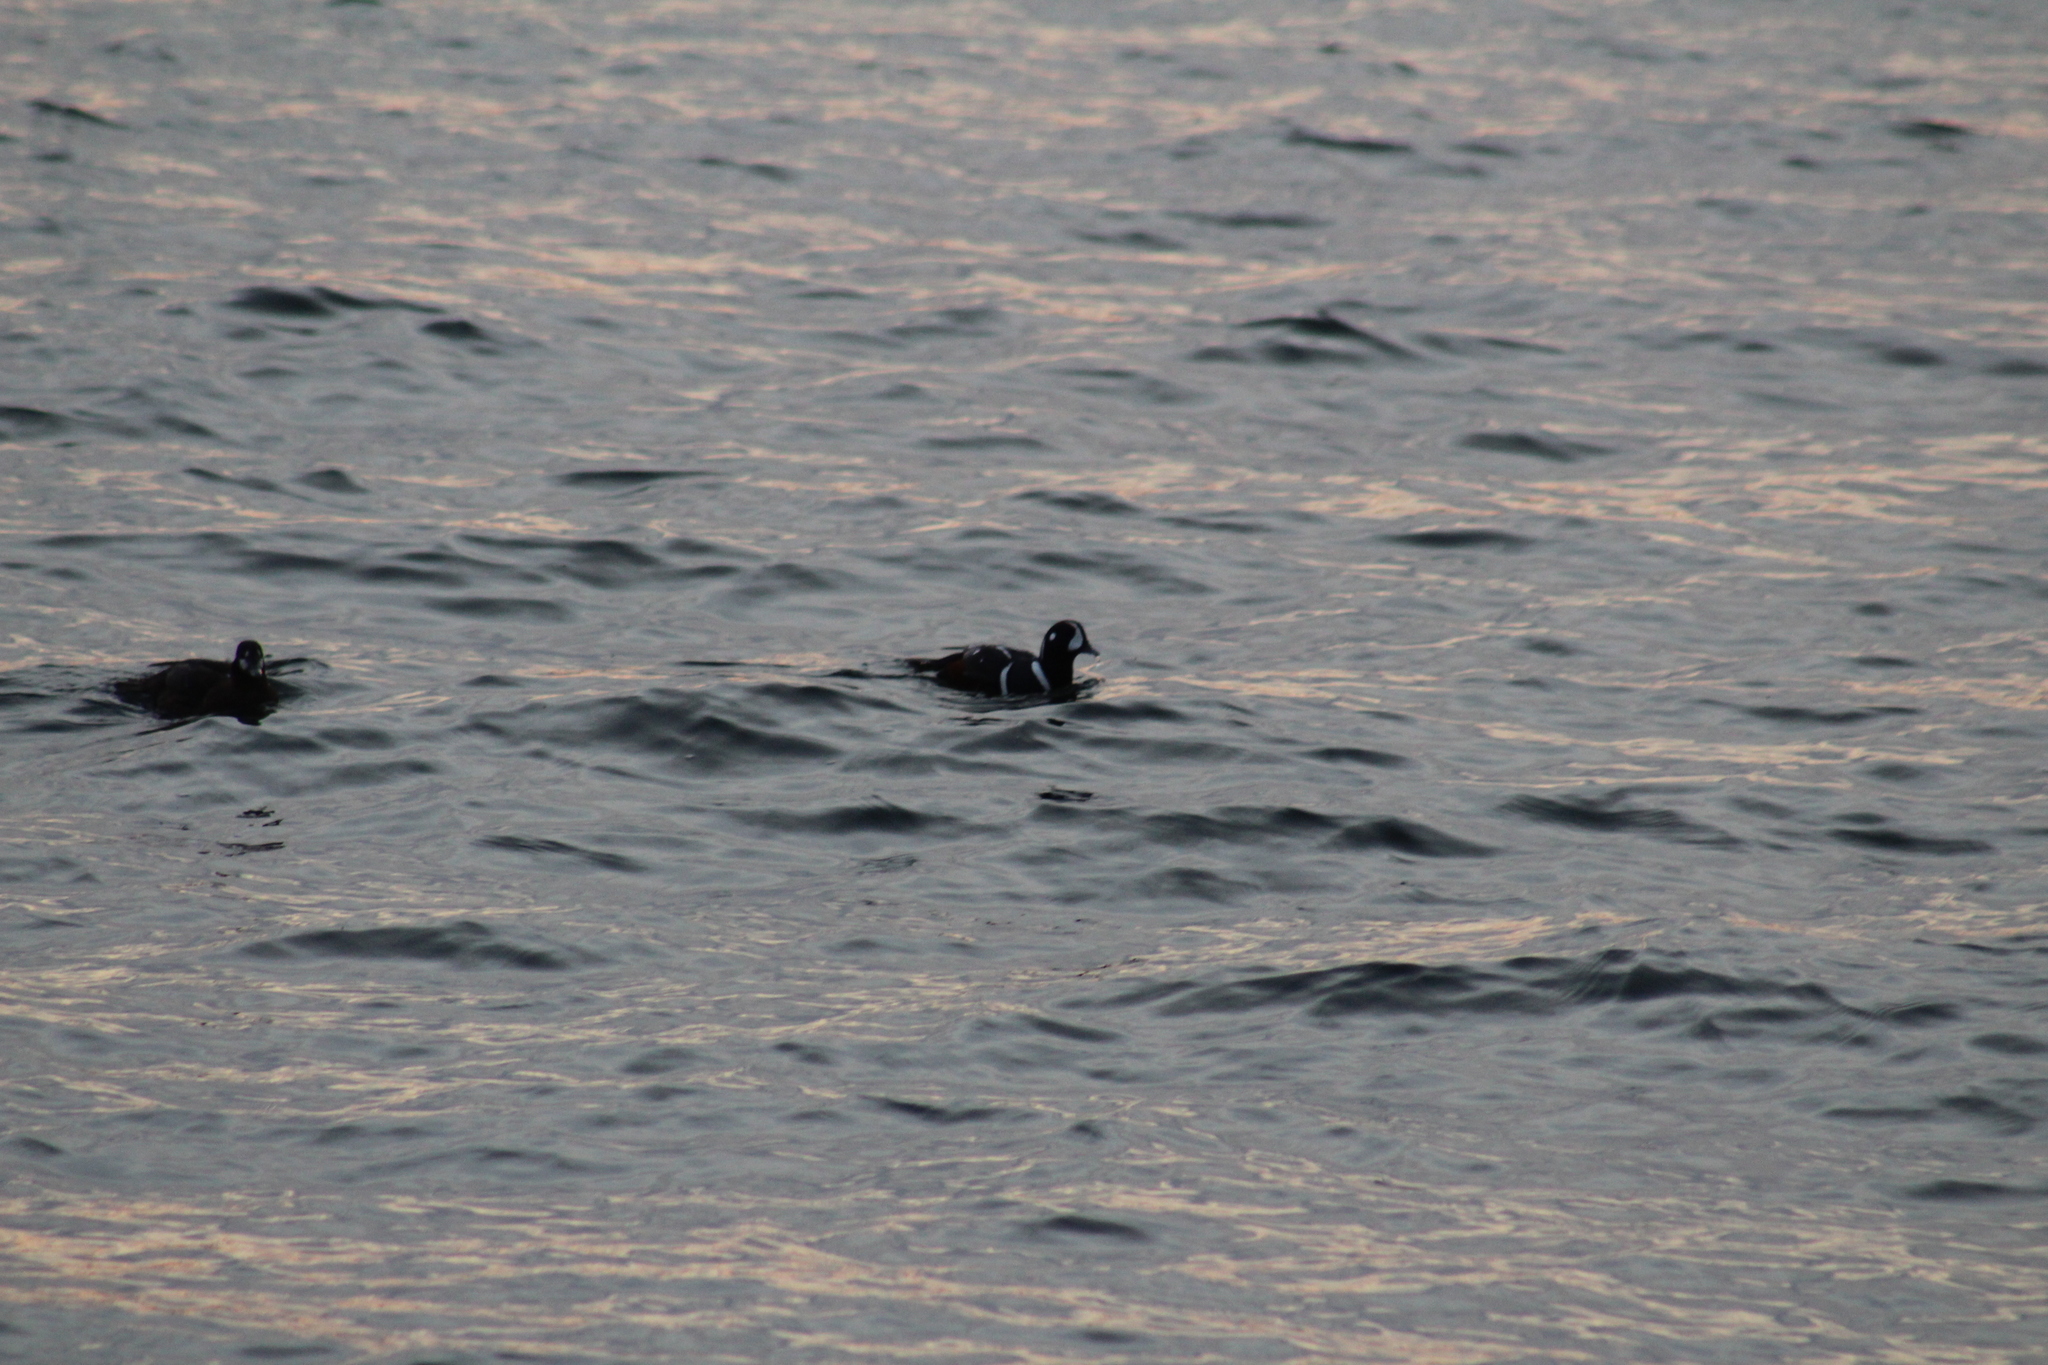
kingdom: Animalia
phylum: Chordata
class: Aves
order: Anseriformes
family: Anatidae
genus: Histrionicus
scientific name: Histrionicus histrionicus
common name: Harlequin duck
